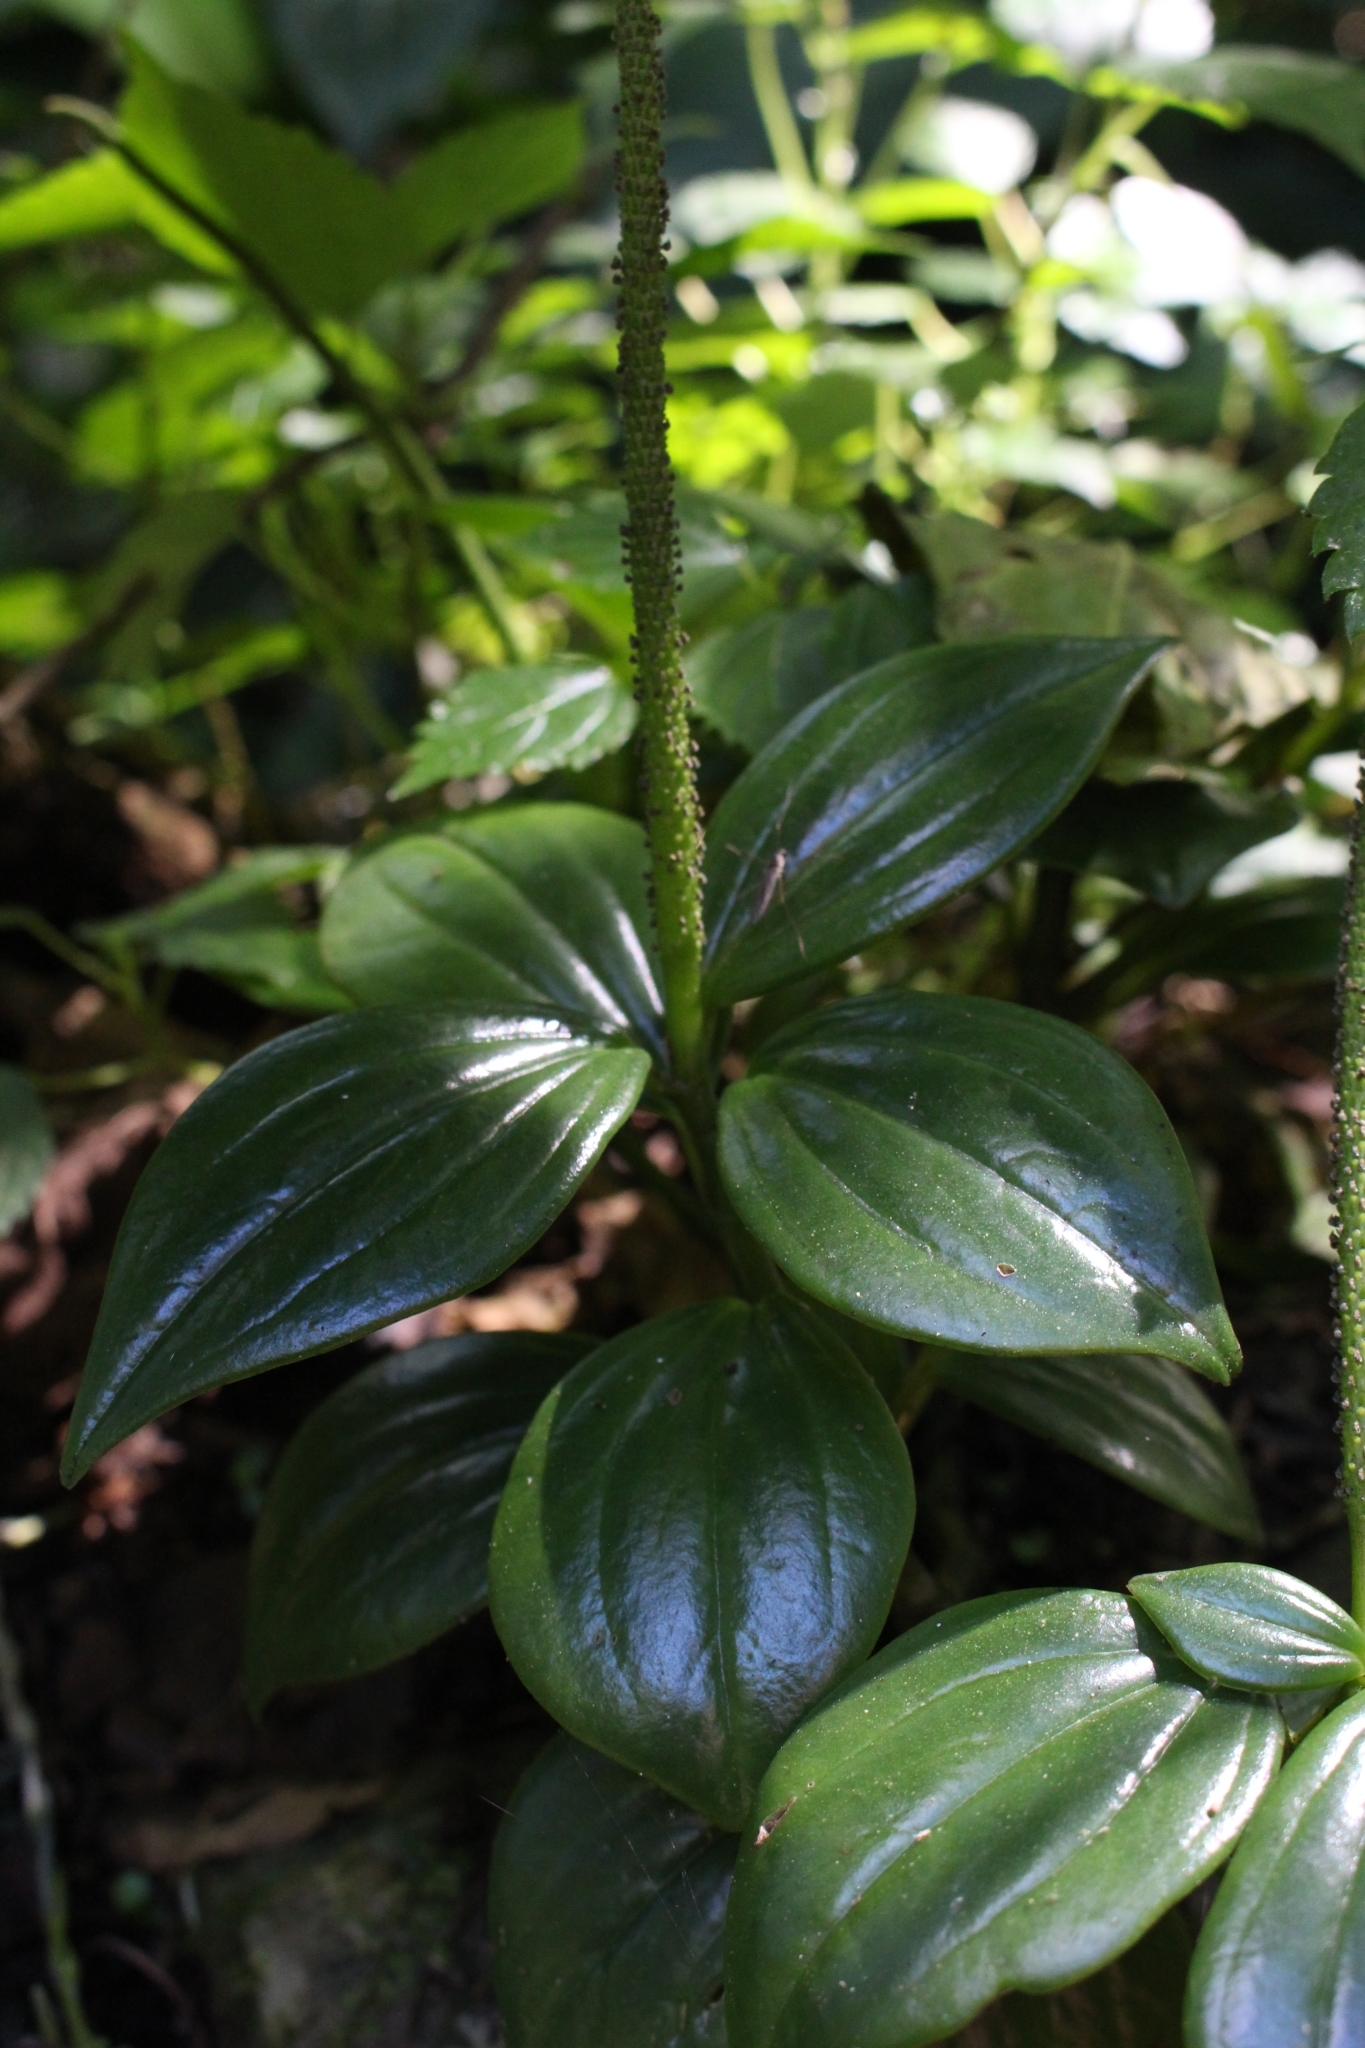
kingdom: Plantae
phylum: Tracheophyta
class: Magnoliopsida
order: Piperales
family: Piperaceae
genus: Peperomia
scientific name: Peperomia san-joseana
